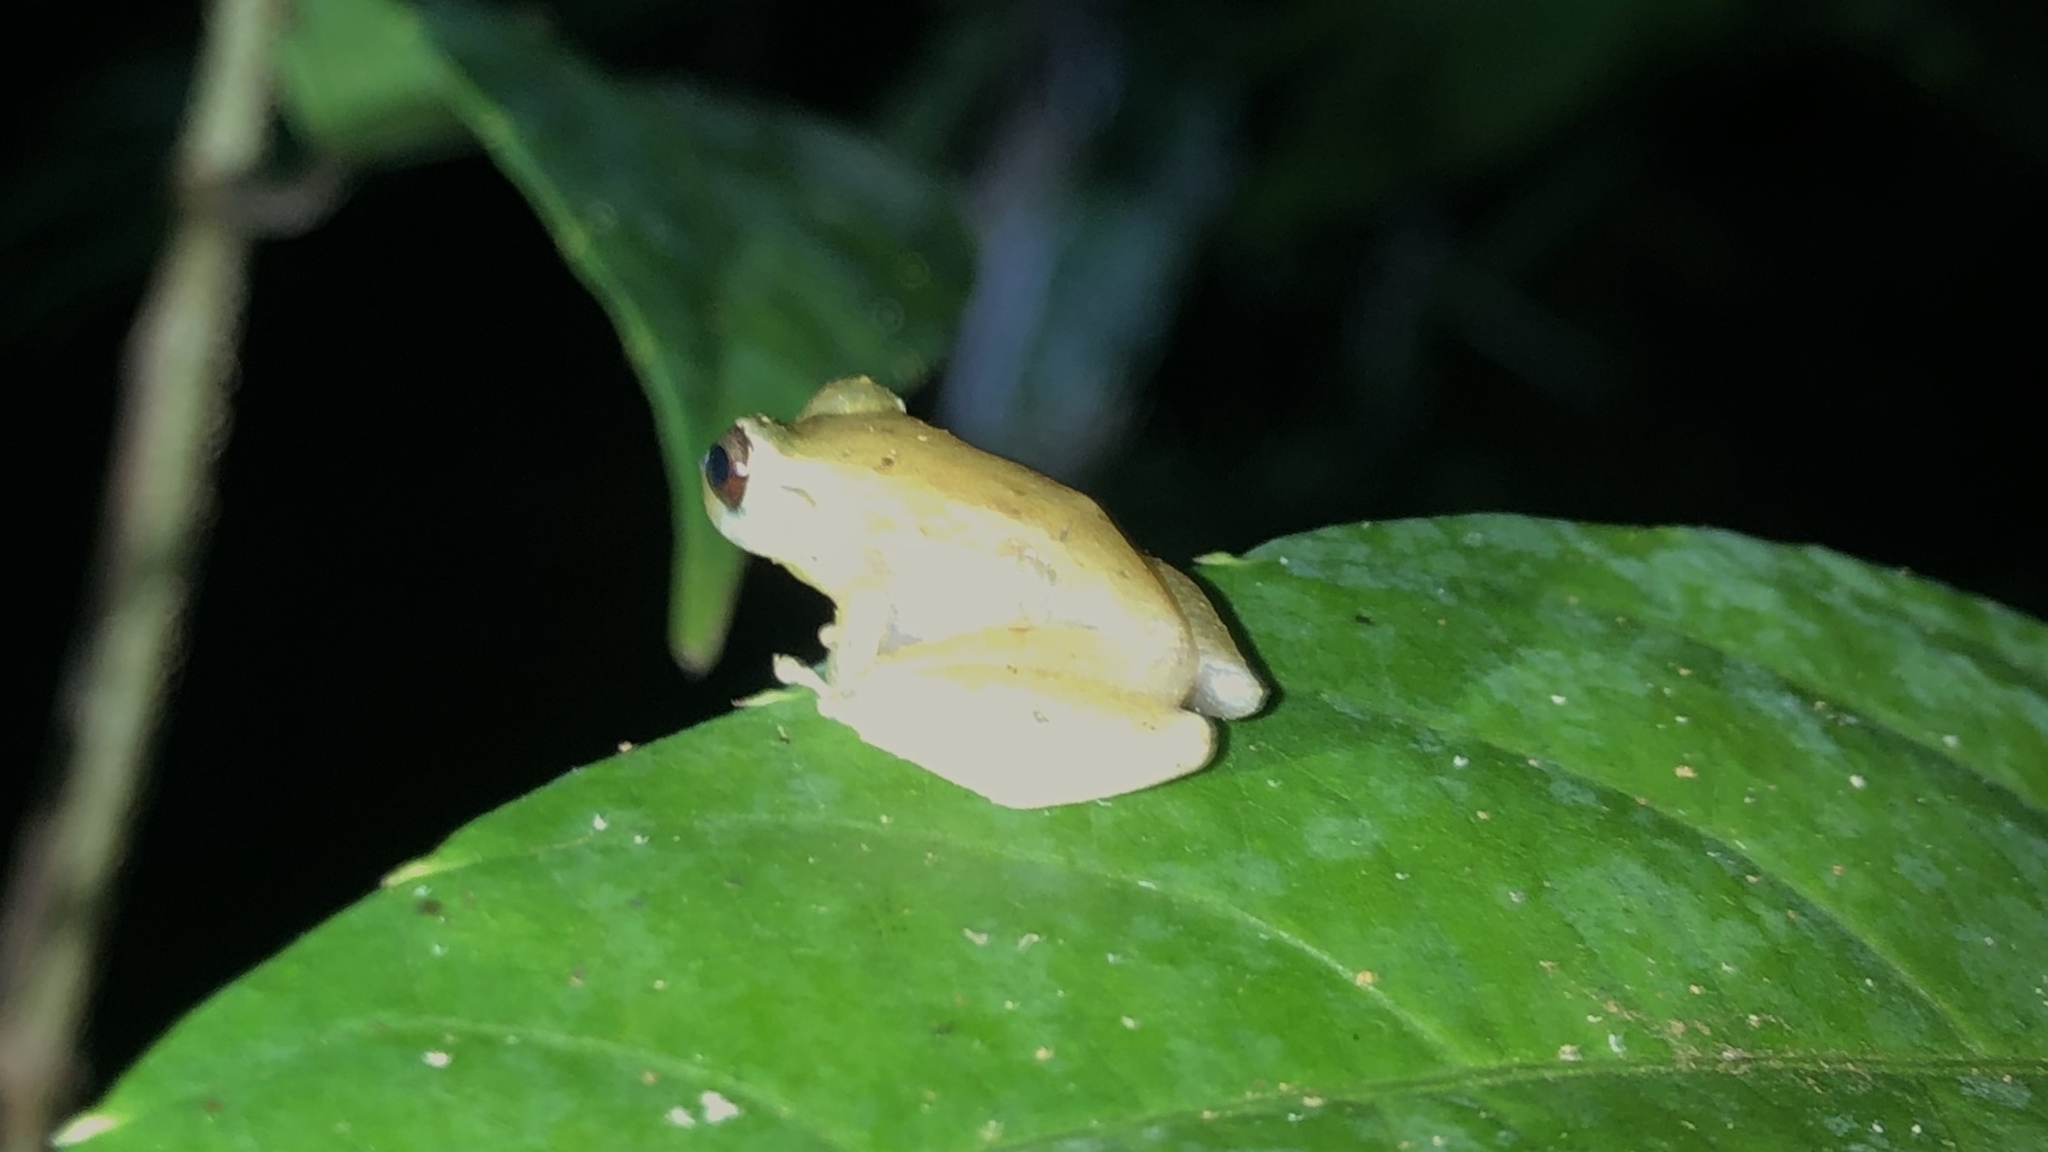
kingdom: Animalia
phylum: Chordata
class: Amphibia
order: Anura
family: Craugastoridae
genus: Pristimantis
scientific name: Pristimantis ridens
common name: Rio san juan robber frog
